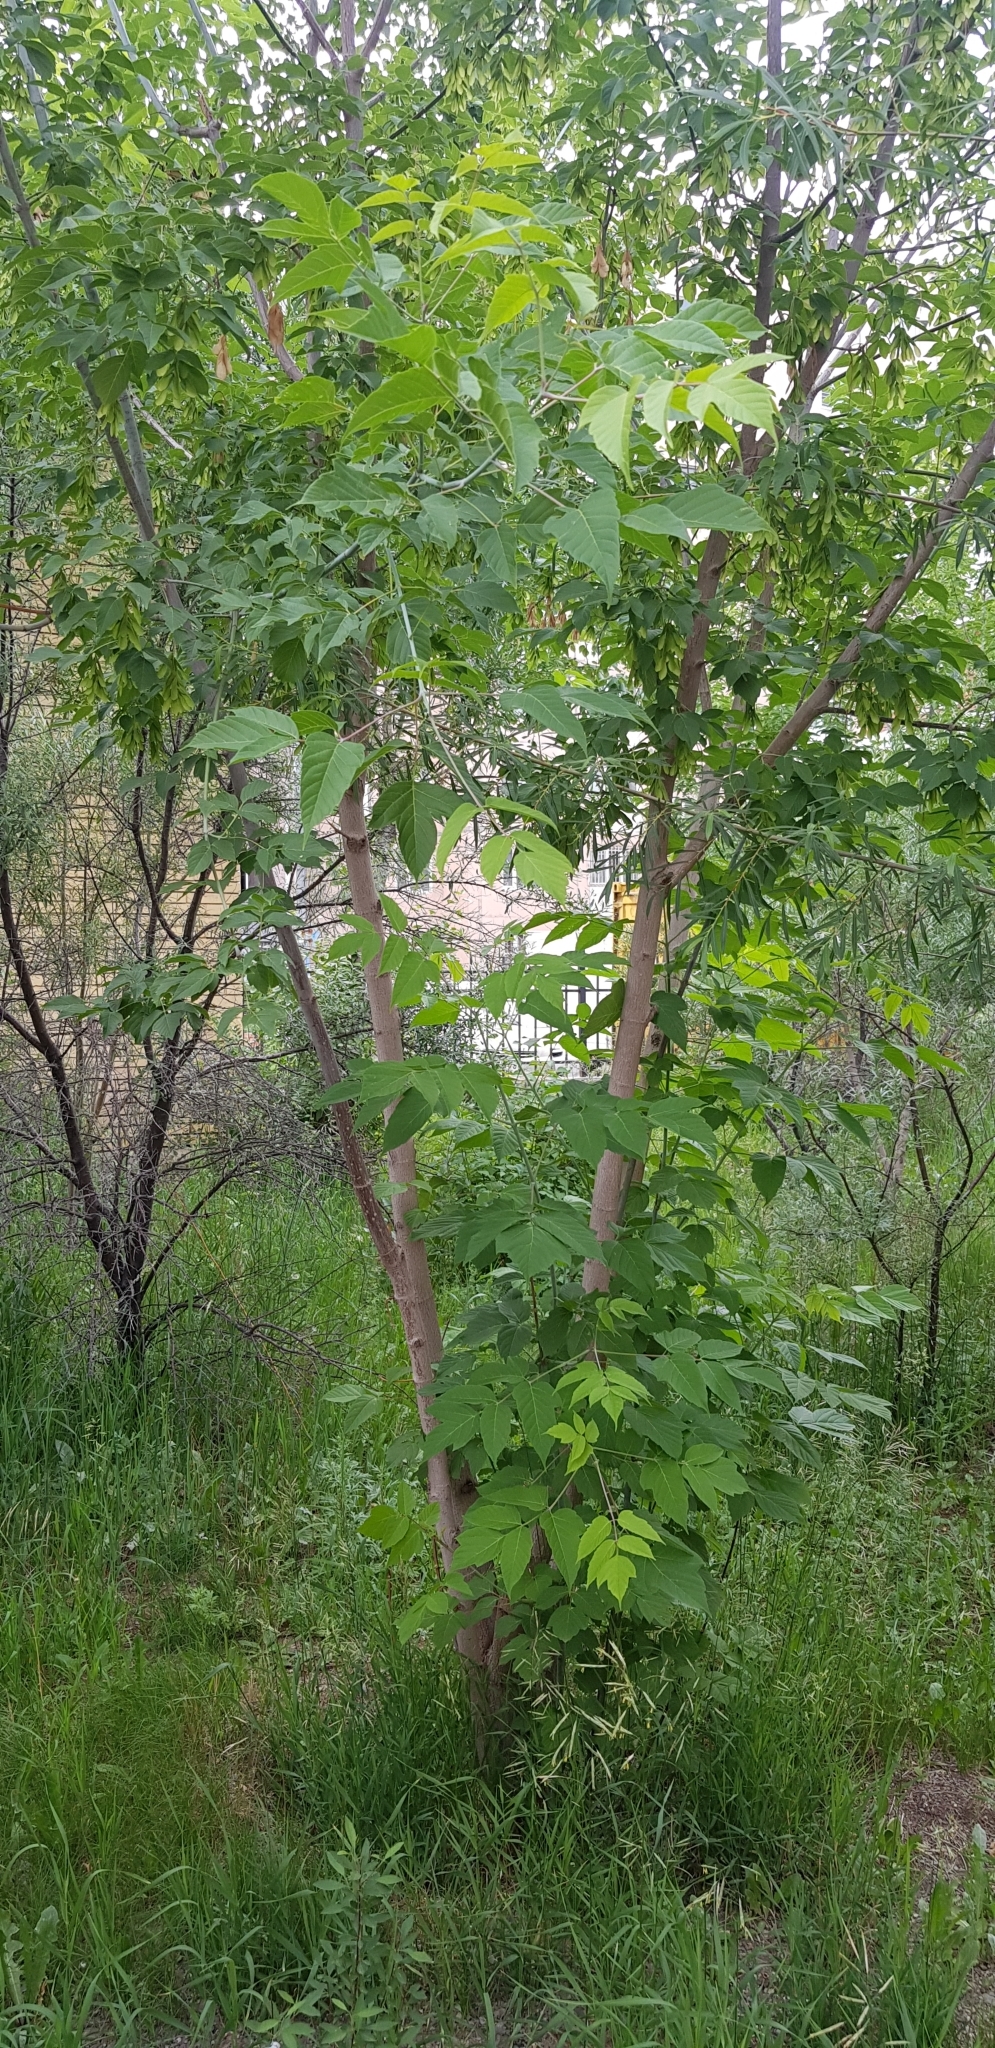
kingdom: Plantae
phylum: Tracheophyta
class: Magnoliopsida
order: Sapindales
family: Sapindaceae
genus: Acer
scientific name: Acer negundo
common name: Ashleaf maple
